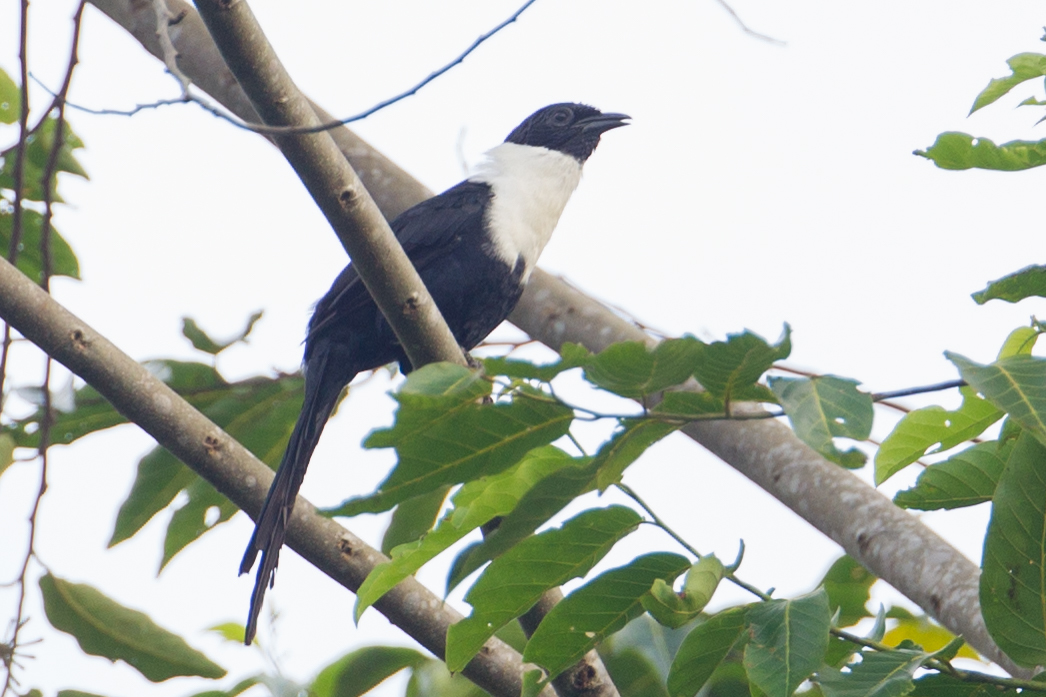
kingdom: Animalia
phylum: Chordata
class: Aves
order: Passeriformes
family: Sturnidae
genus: Streptocitta
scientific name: Streptocitta albicollis
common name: White-necked myna
